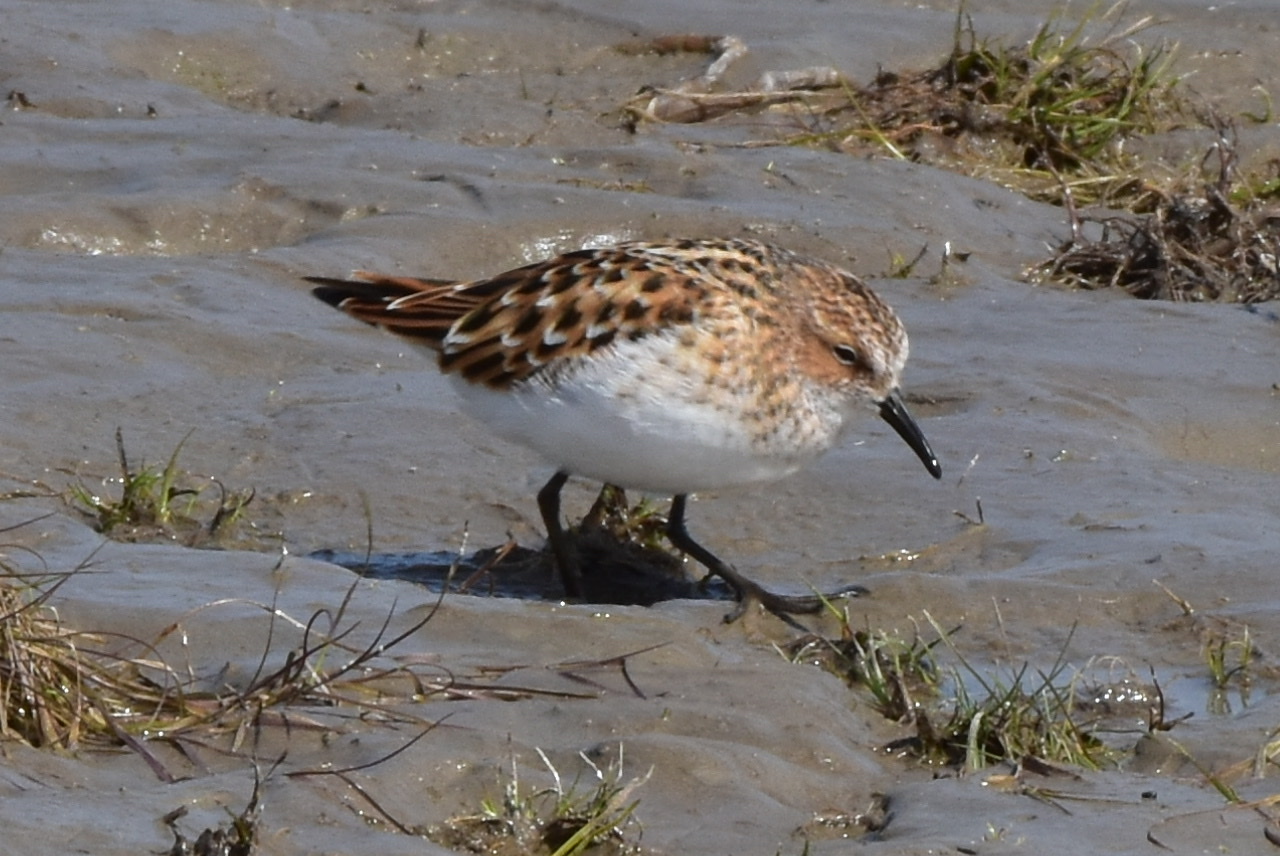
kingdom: Animalia
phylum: Chordata
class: Aves
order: Charadriiformes
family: Scolopacidae
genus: Calidris
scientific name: Calidris minuta
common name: Little stint
